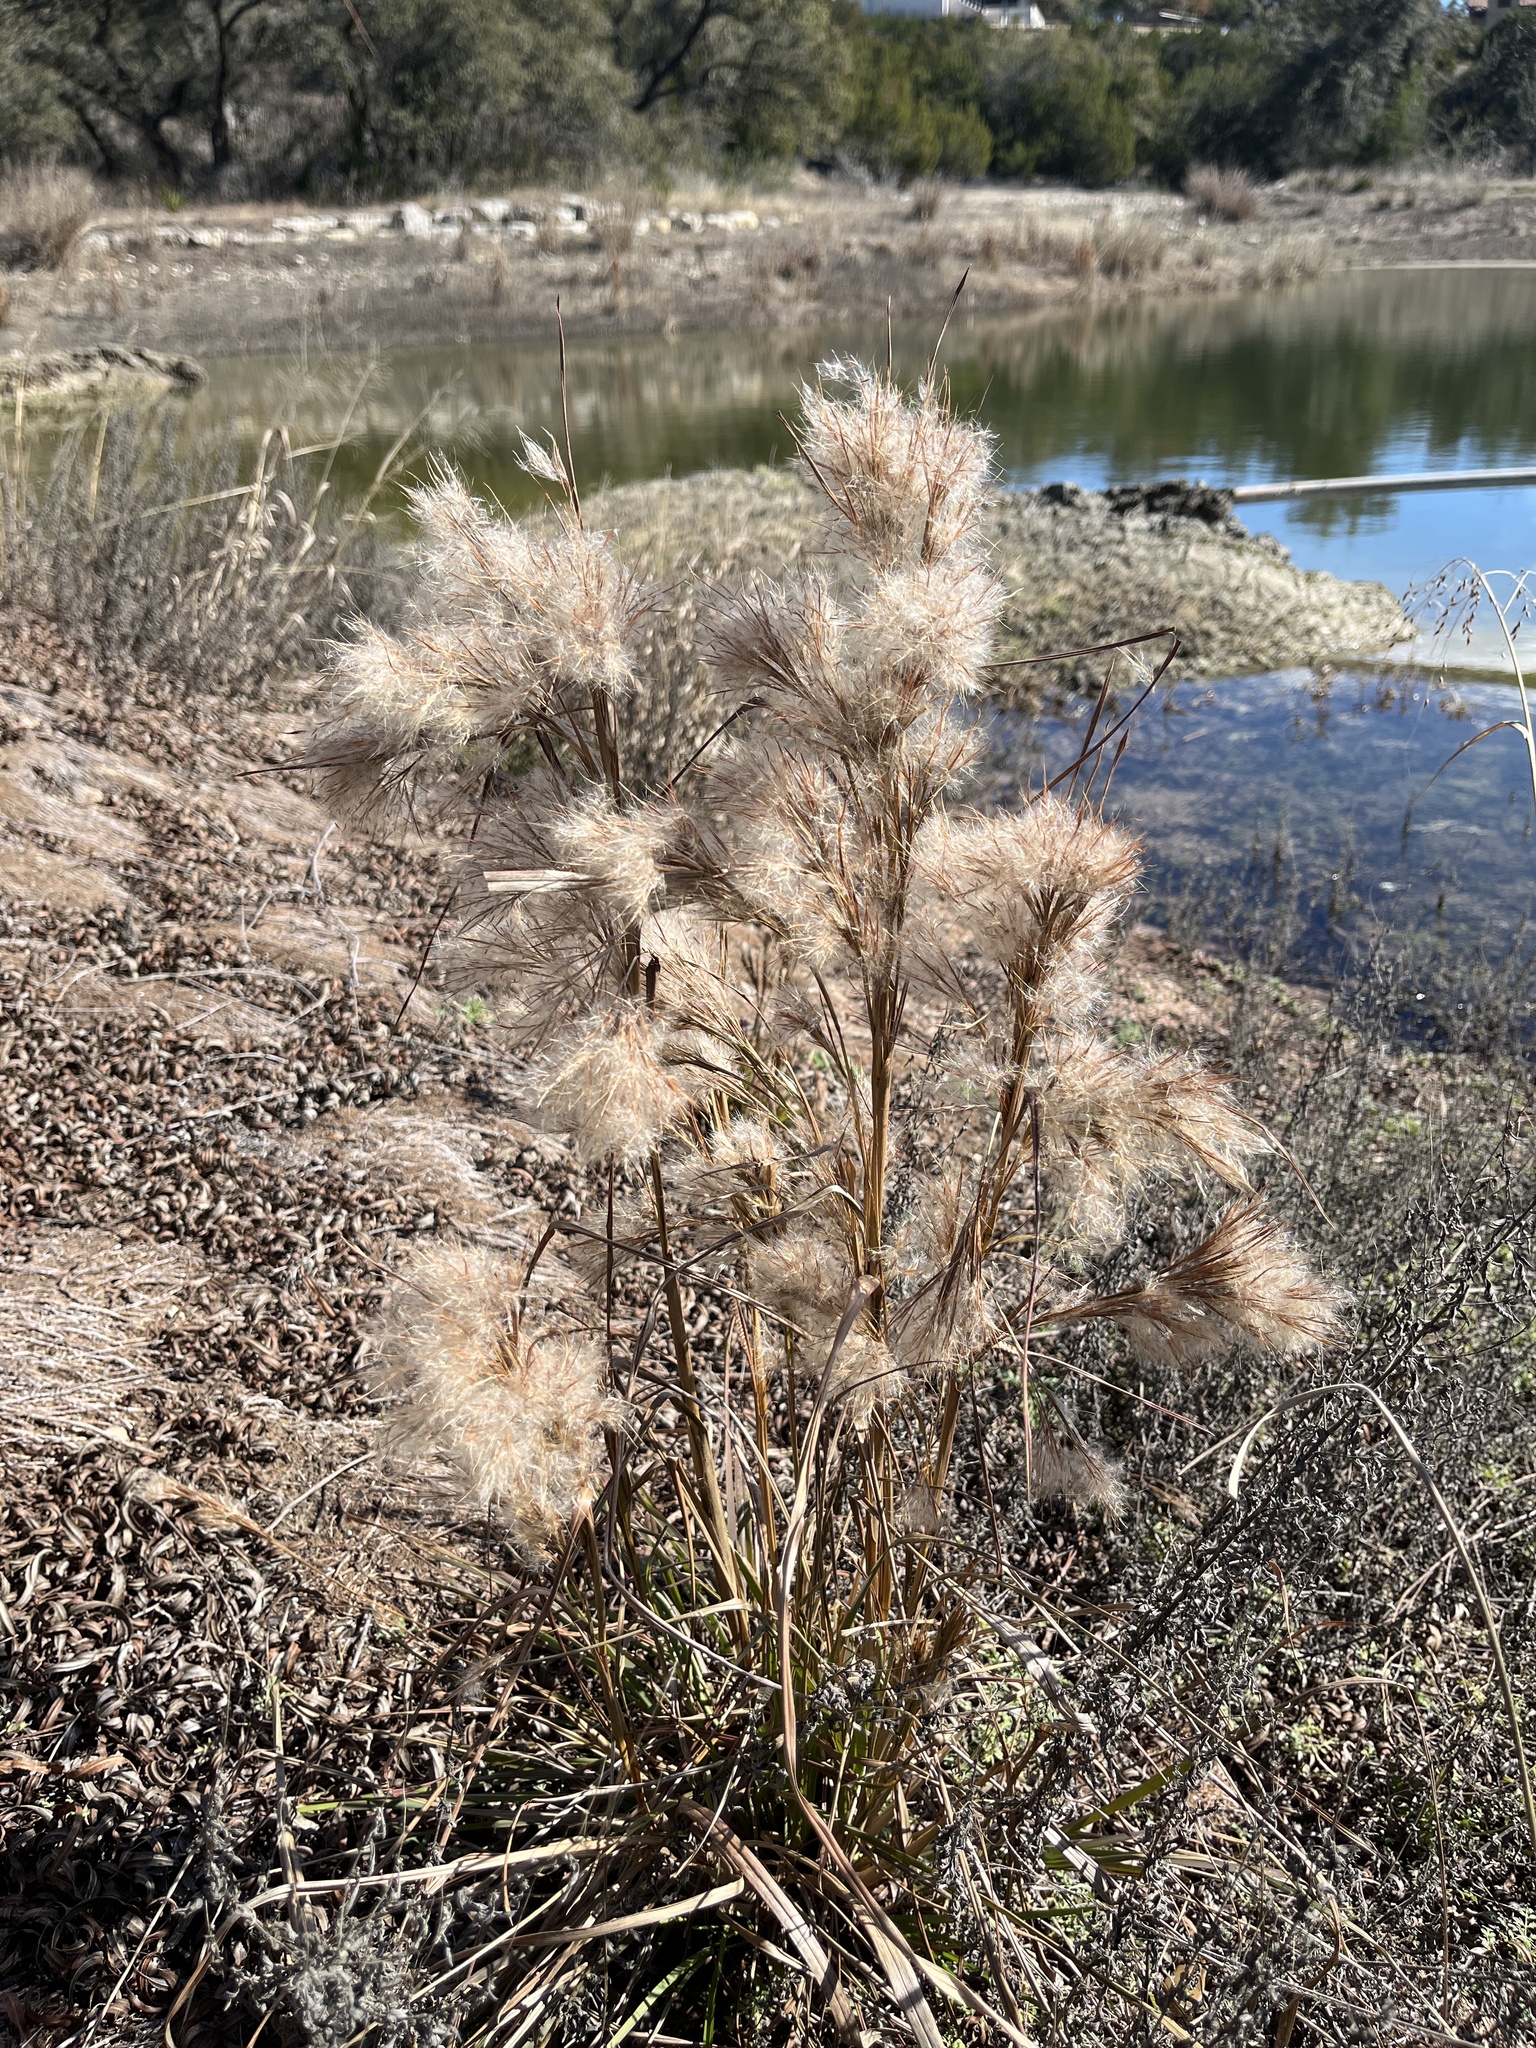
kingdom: Plantae
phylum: Tracheophyta
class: Liliopsida
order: Poales
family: Poaceae
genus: Andropogon
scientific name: Andropogon tenuispatheus
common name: Bushy bluestem
